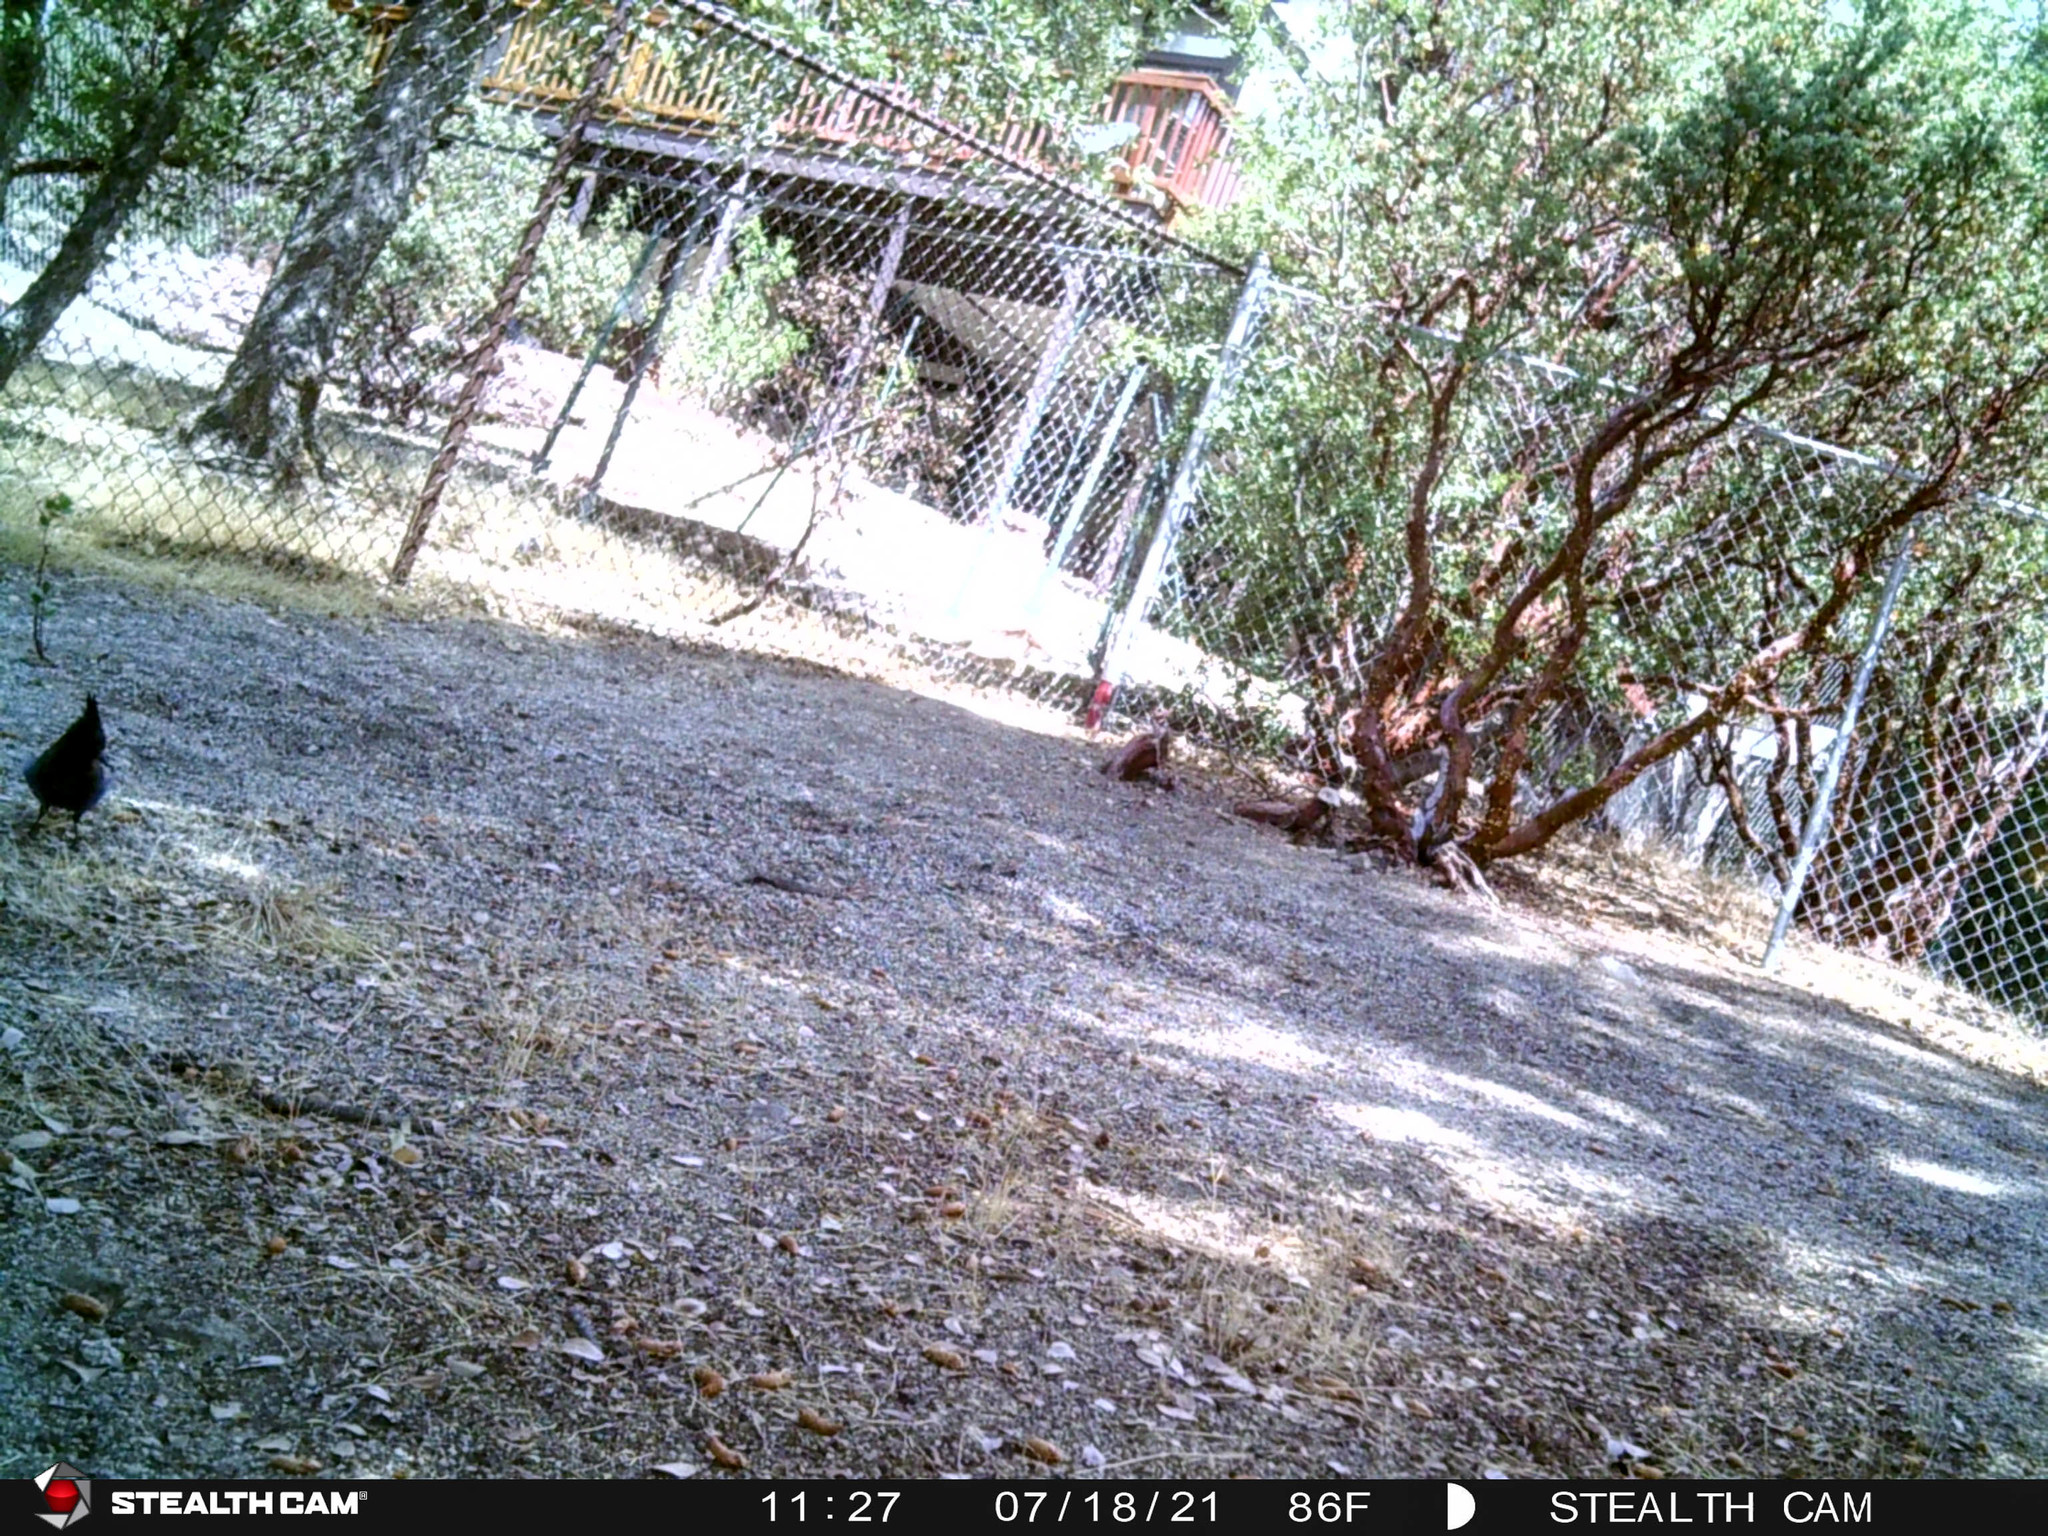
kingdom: Animalia
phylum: Chordata
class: Aves
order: Passeriformes
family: Corvidae
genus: Cyanocitta
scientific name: Cyanocitta stelleri
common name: Steller's jay
